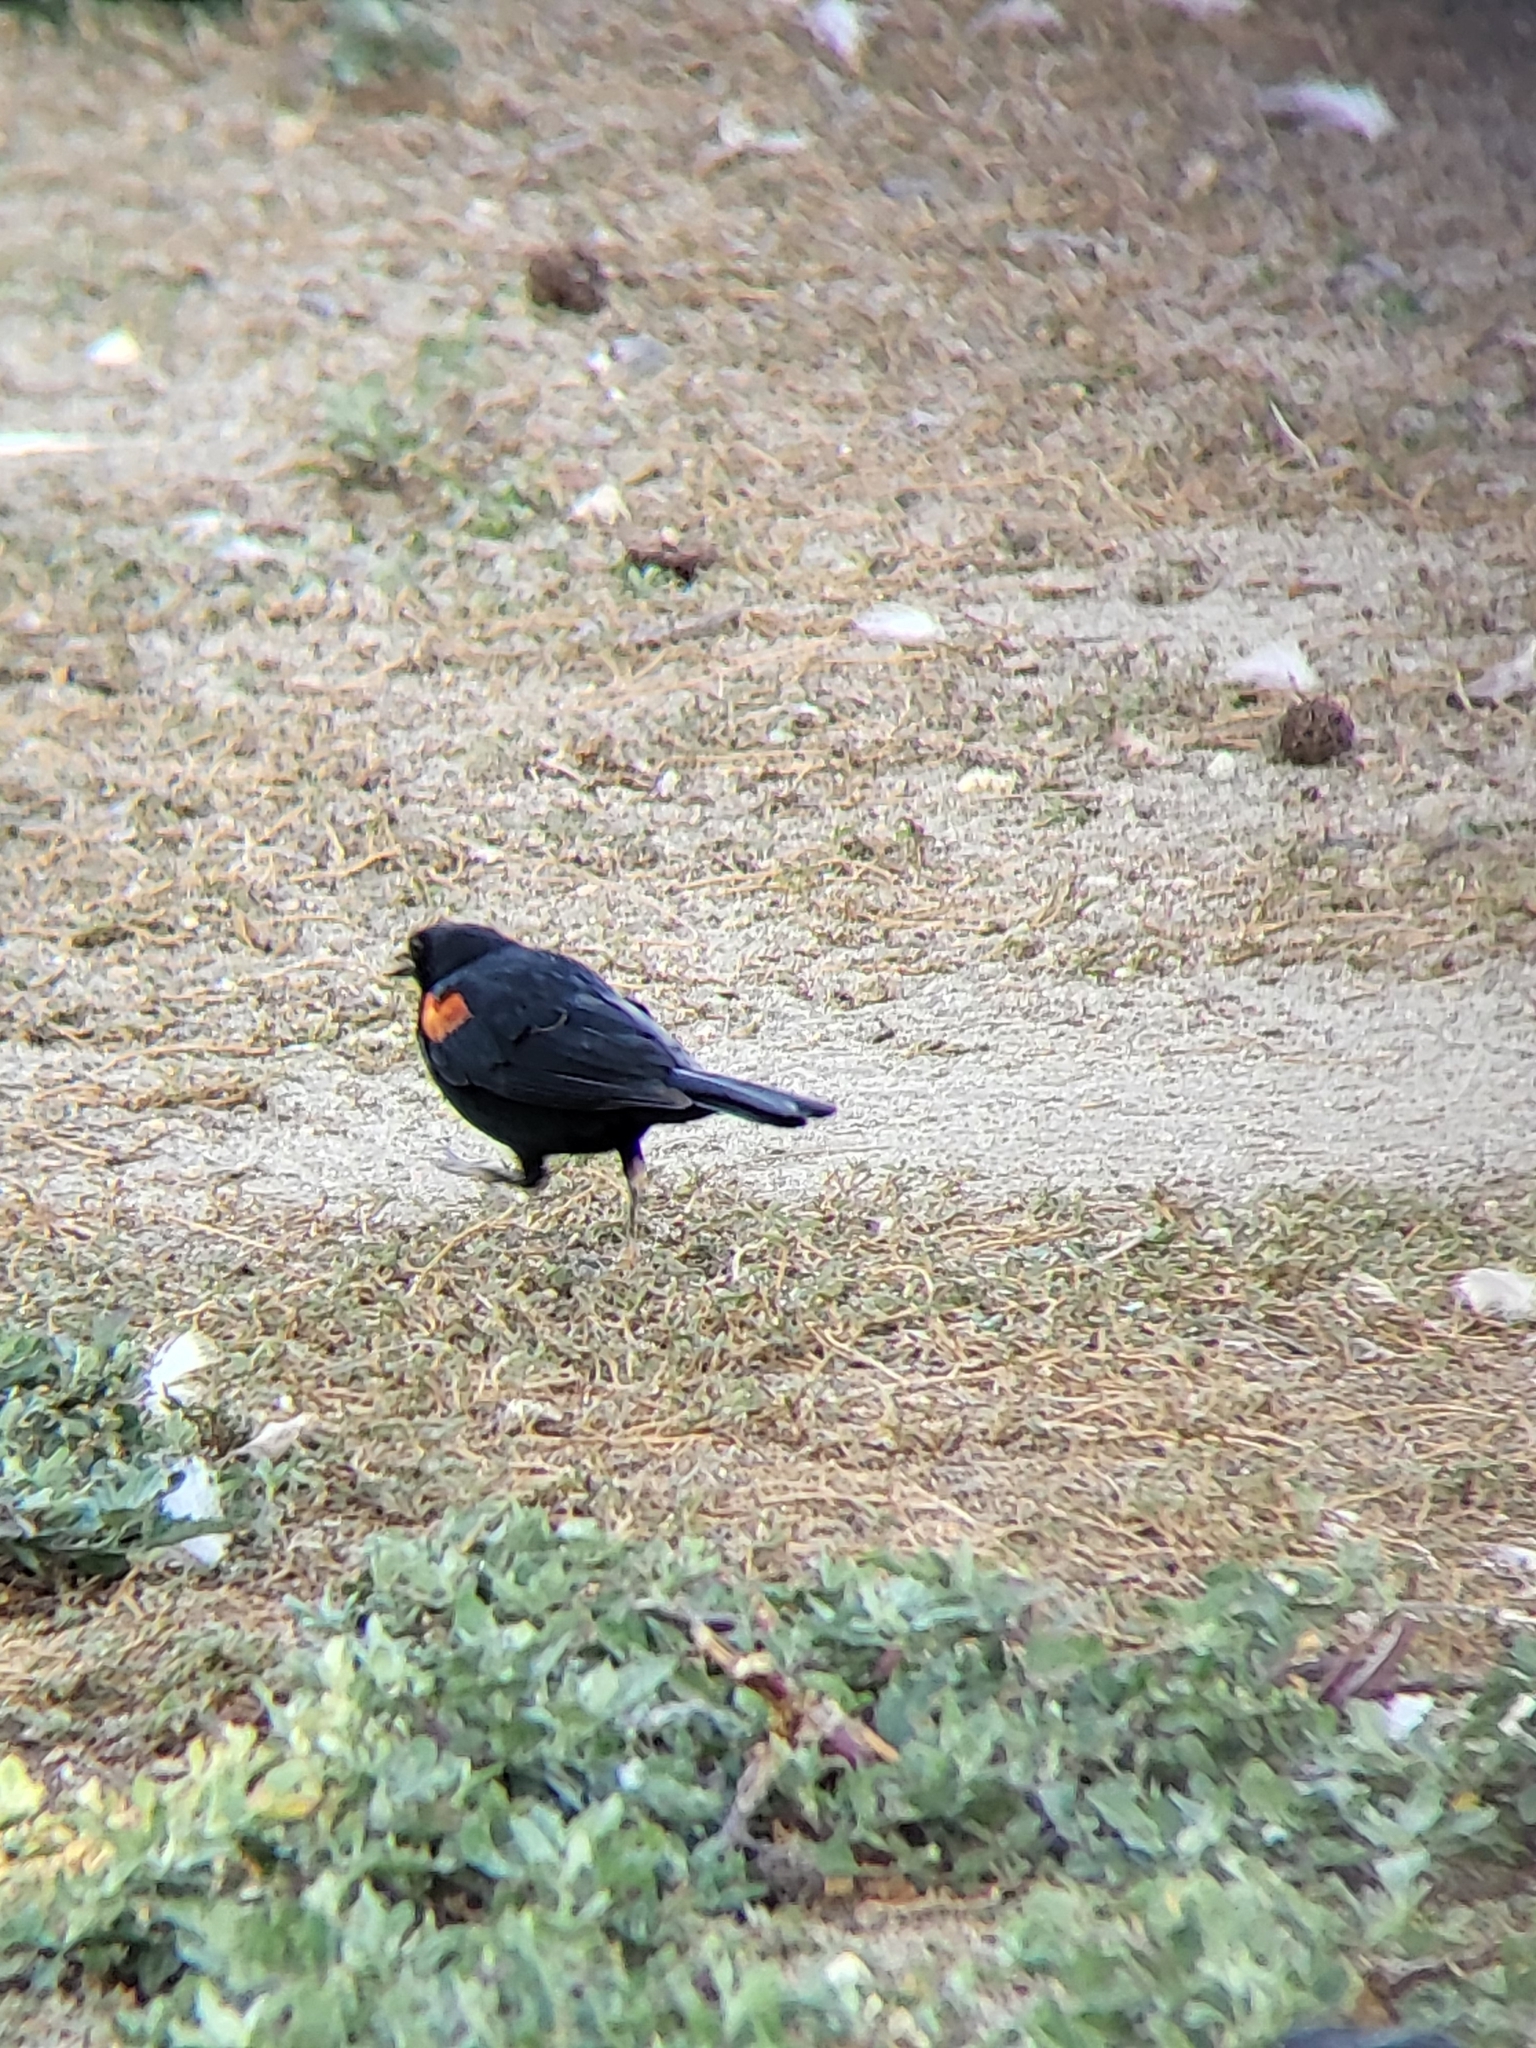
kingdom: Animalia
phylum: Chordata
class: Aves
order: Passeriformes
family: Icteridae
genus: Agelaius
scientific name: Agelaius phoeniceus
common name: Red-winged blackbird
